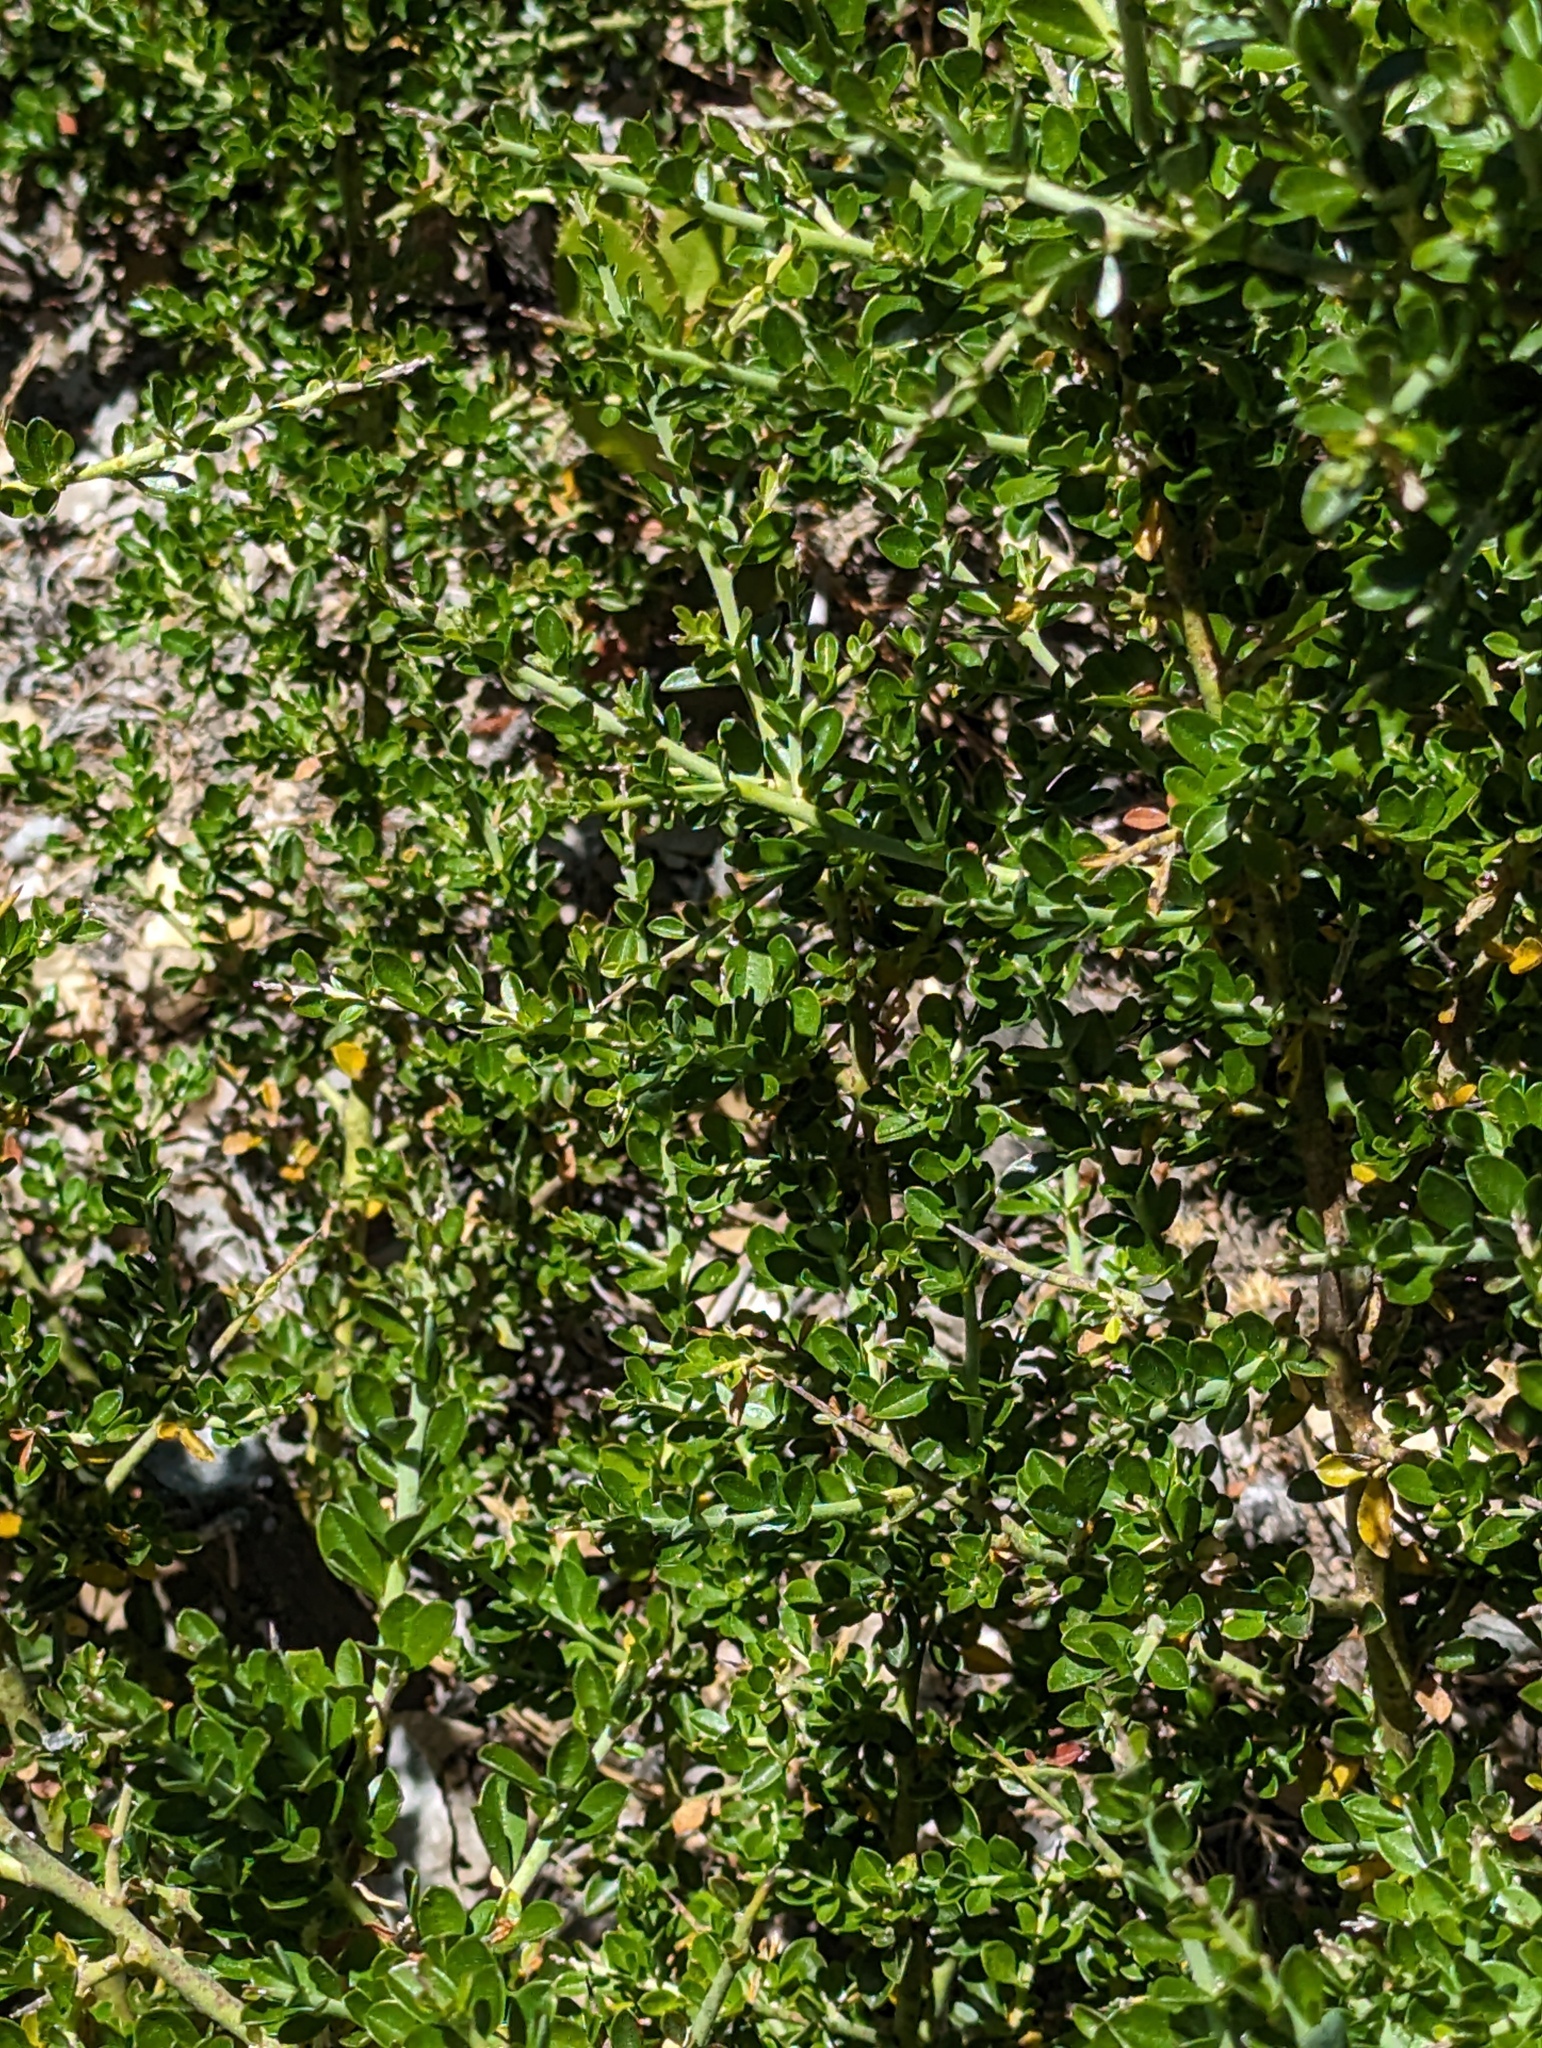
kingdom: Plantae
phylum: Tracheophyta
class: Magnoliopsida
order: Fabales
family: Fabaceae
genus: Pickeringia
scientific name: Pickeringia montana
